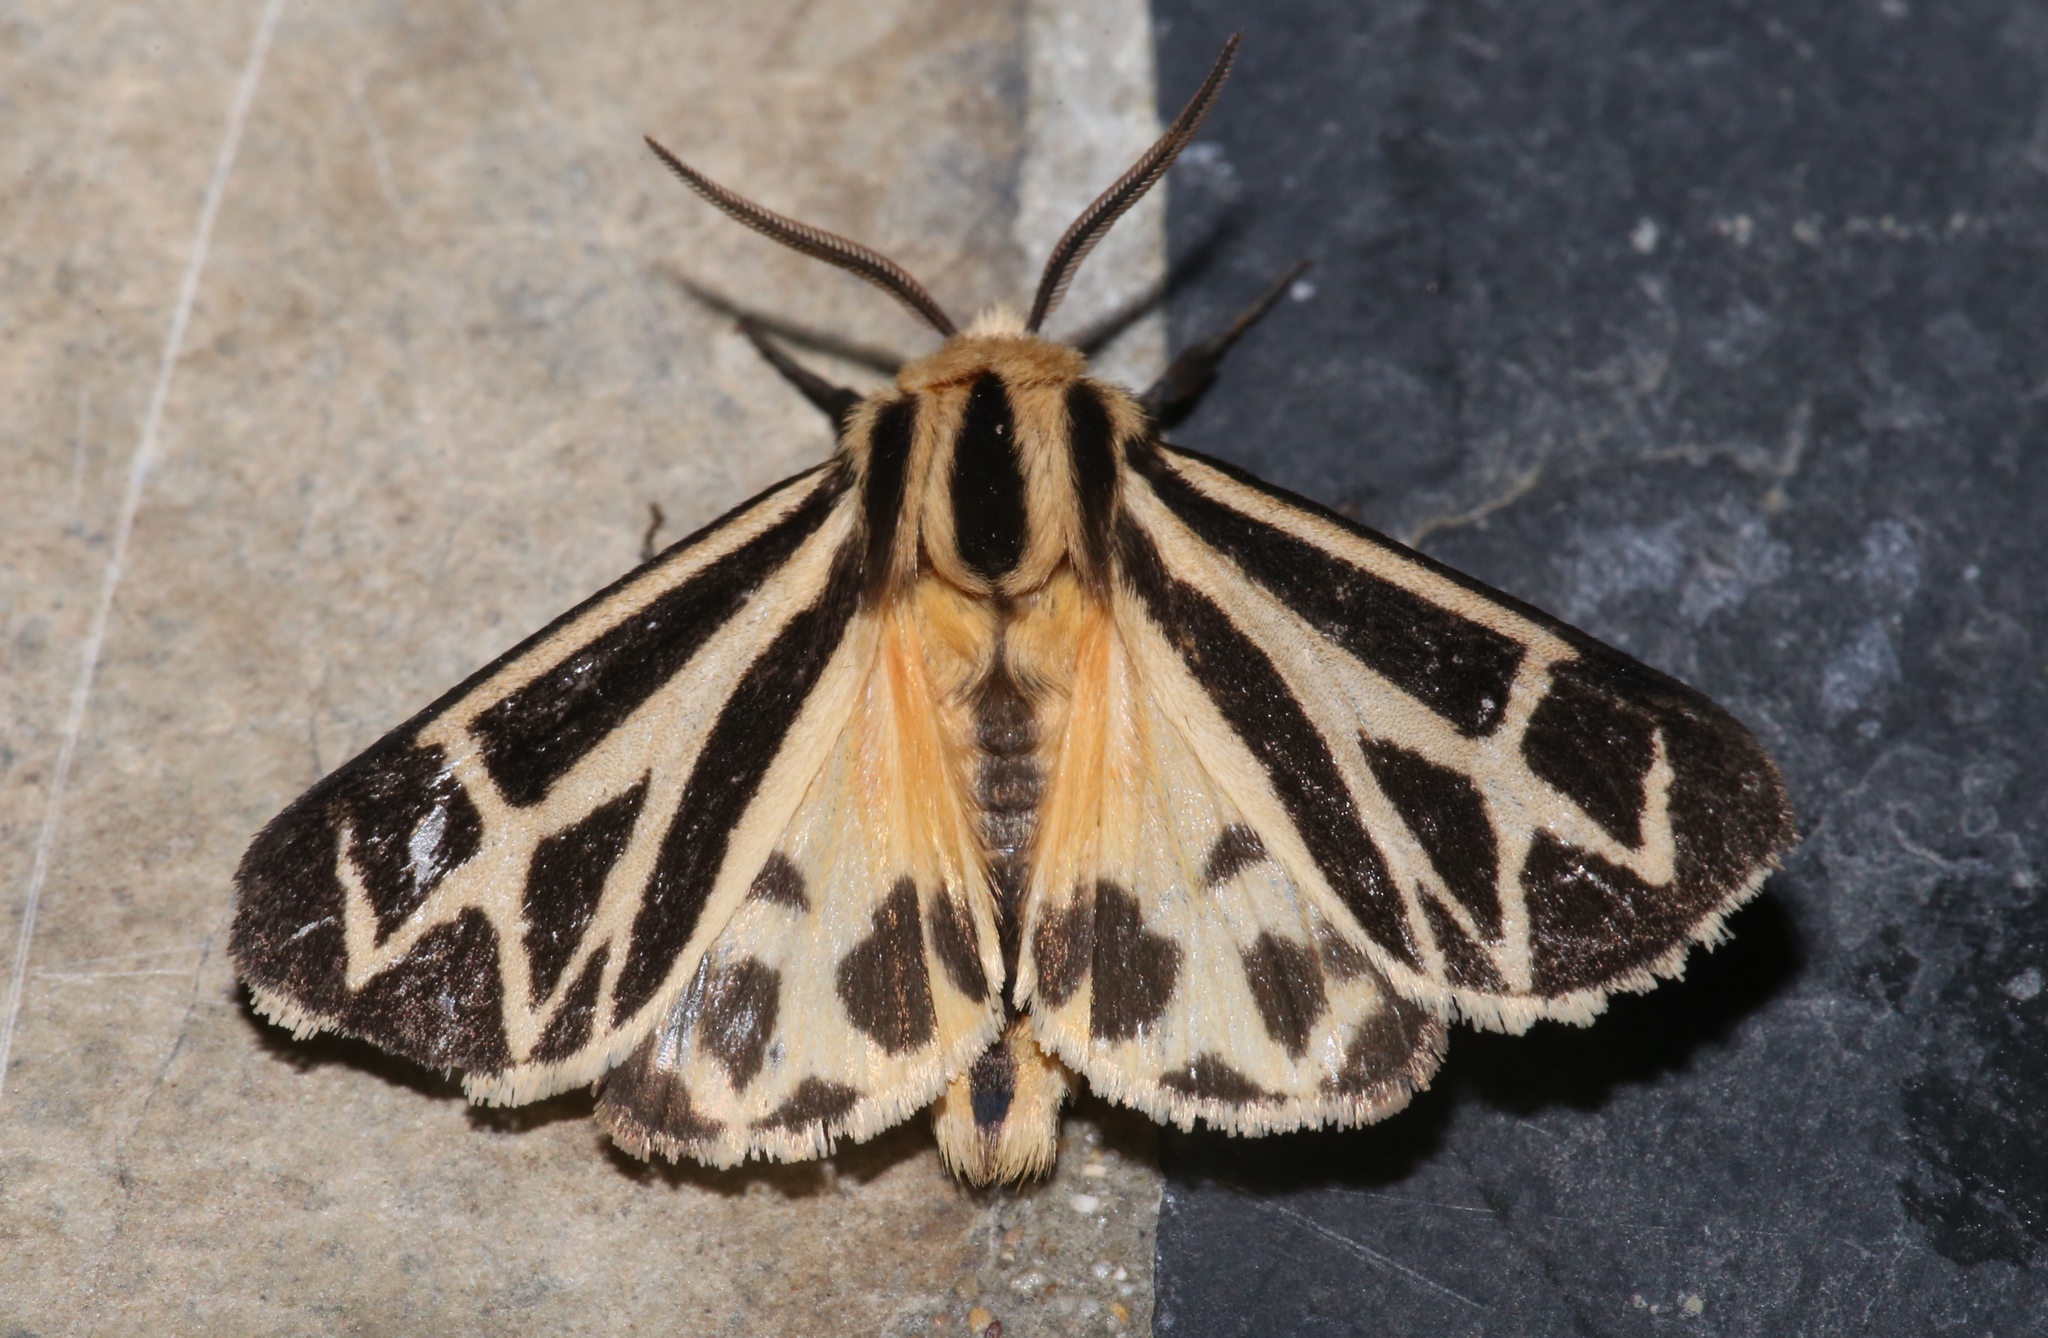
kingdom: Animalia
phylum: Arthropoda
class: Insecta
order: Lepidoptera
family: Erebidae
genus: Apantesis
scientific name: Apantesis carlotta
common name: Carlotta's tiger moth
